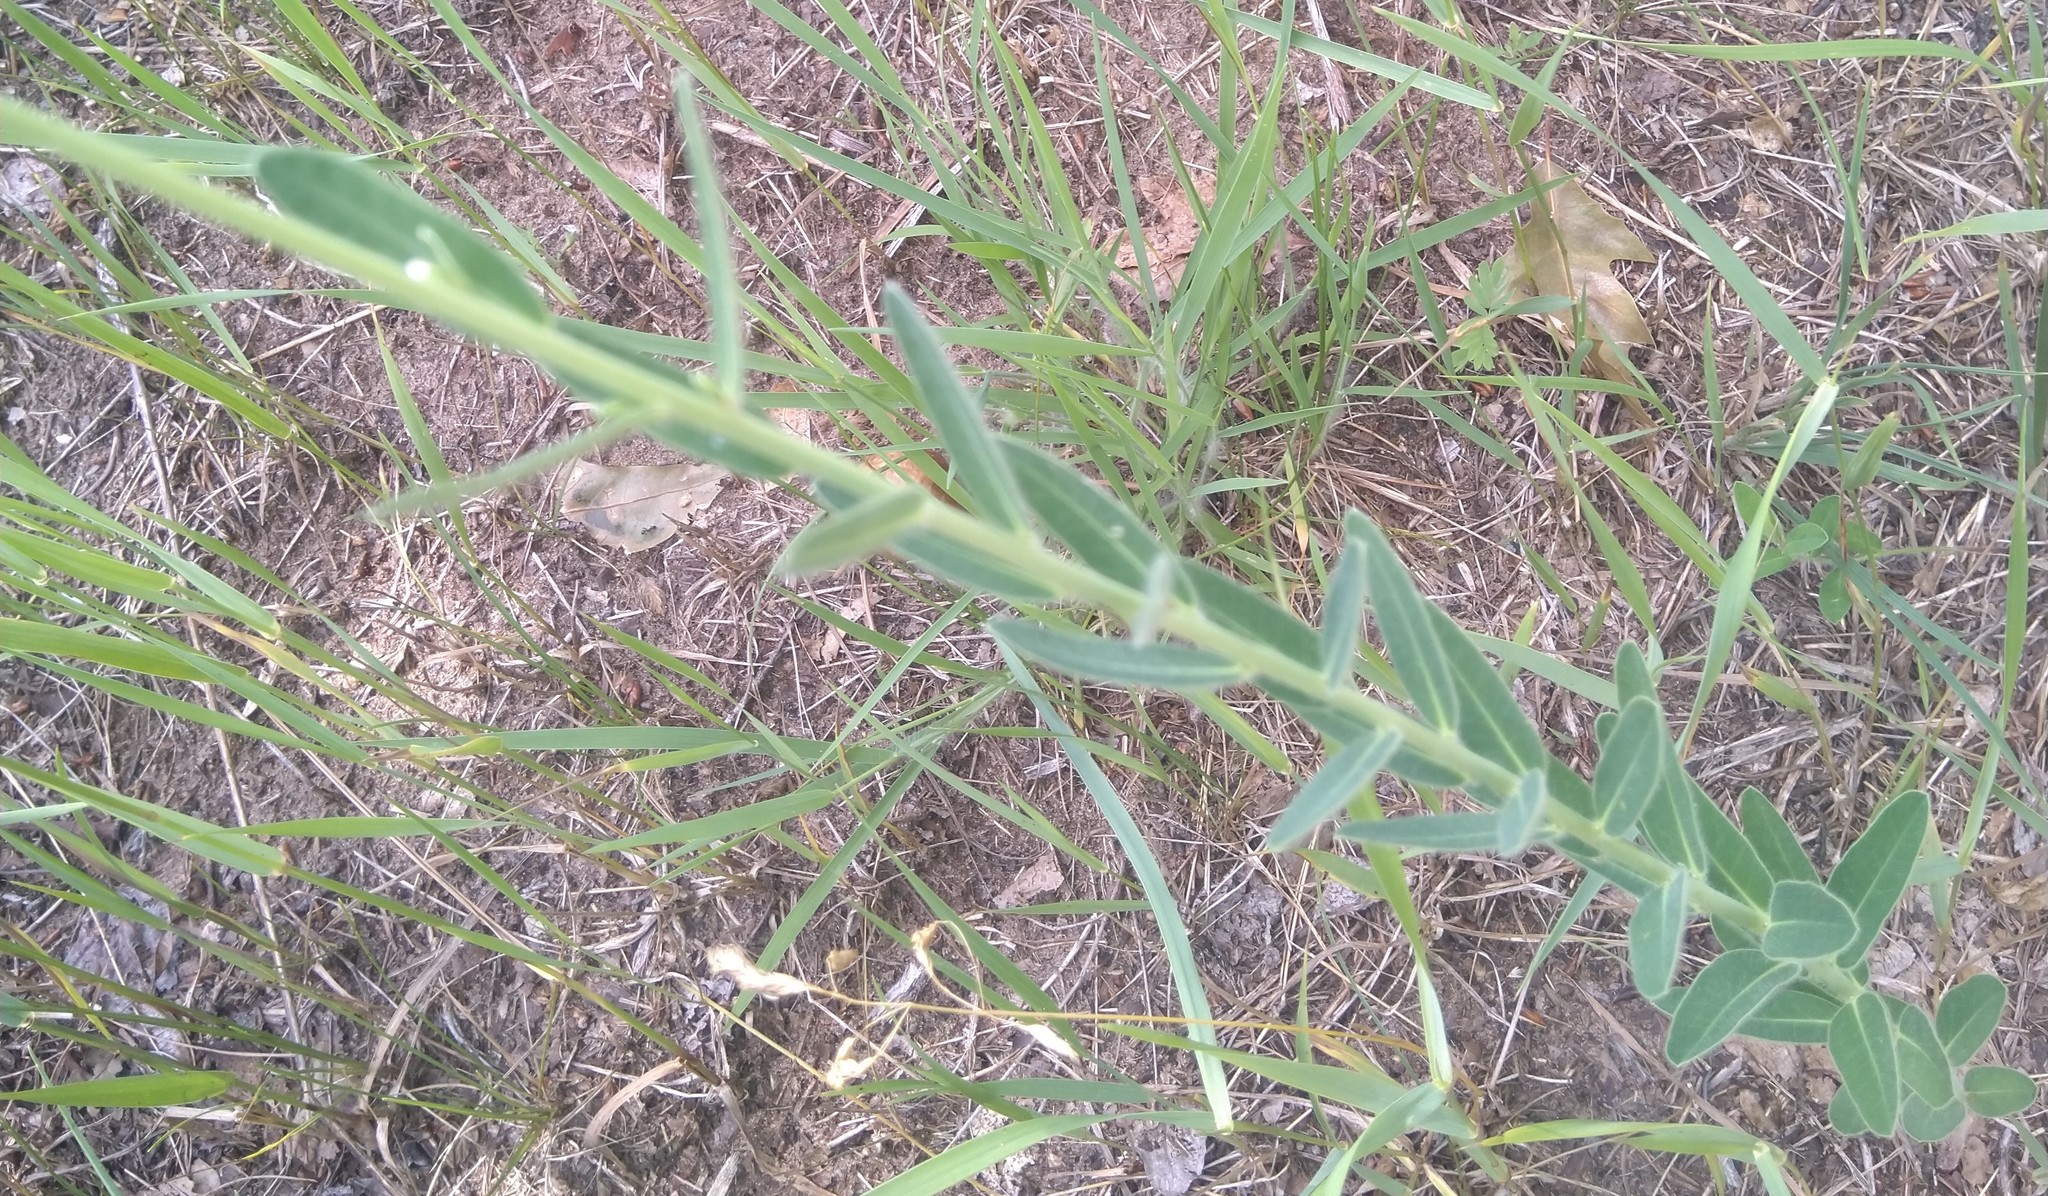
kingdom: Plantae
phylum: Tracheophyta
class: Magnoliopsida
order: Malpighiales
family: Euphorbiaceae
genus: Euphorbia
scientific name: Euphorbia corollata
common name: Flowering spurge
